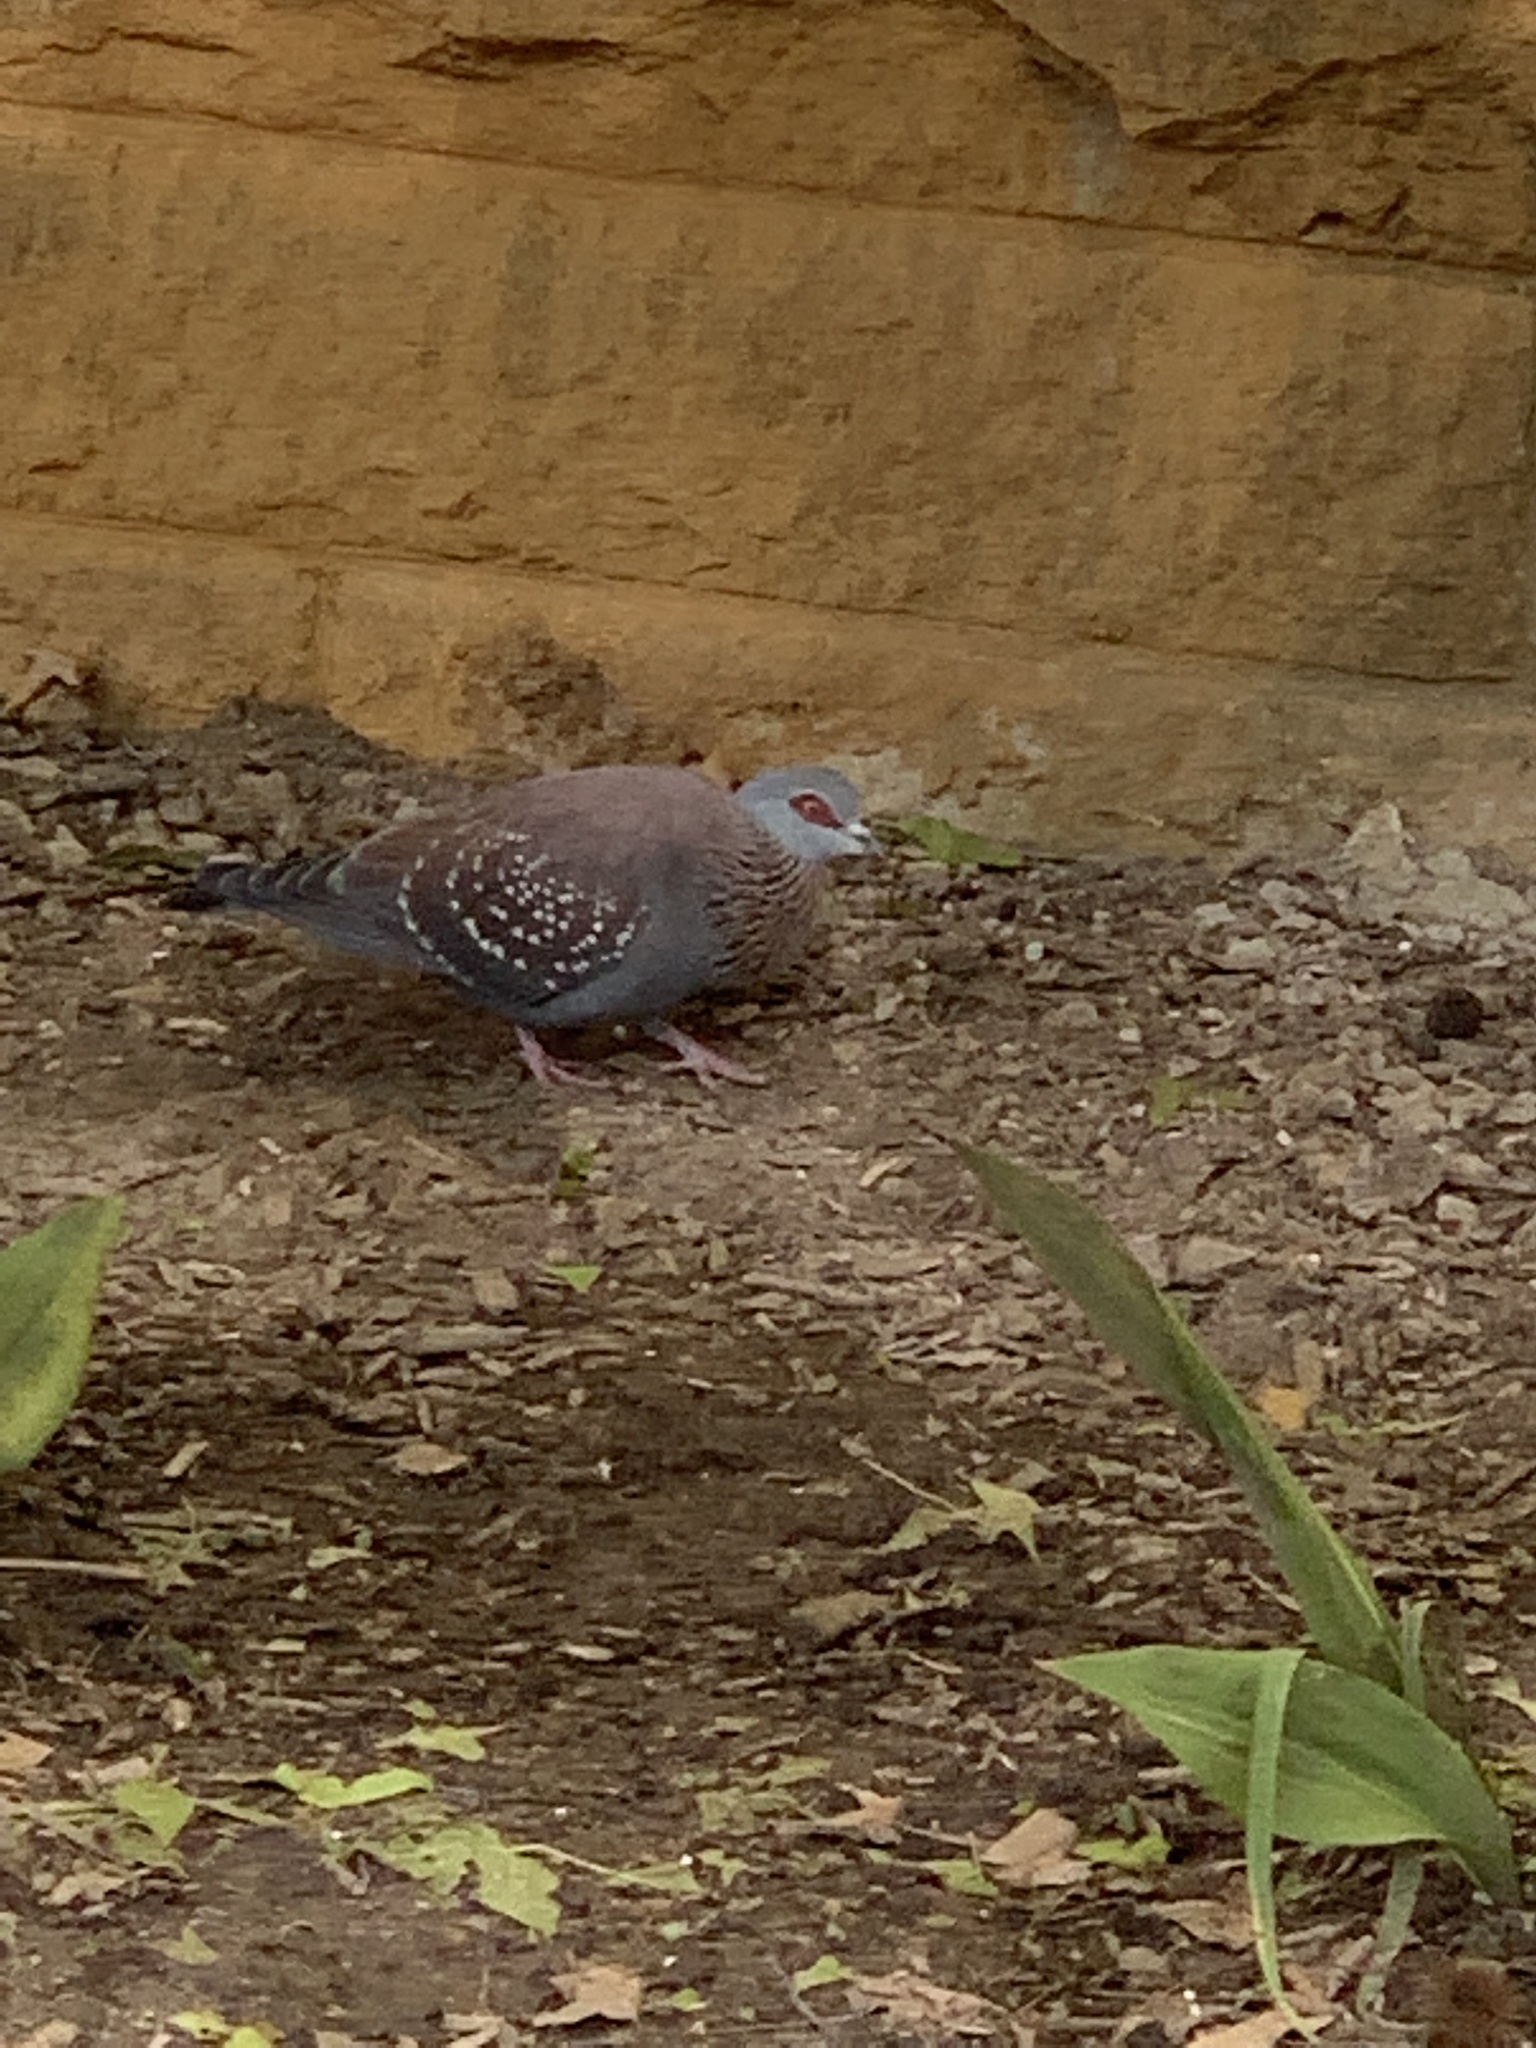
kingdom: Animalia
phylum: Chordata
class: Aves
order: Columbiformes
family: Columbidae
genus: Columba
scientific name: Columba guinea
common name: Speckled pigeon
